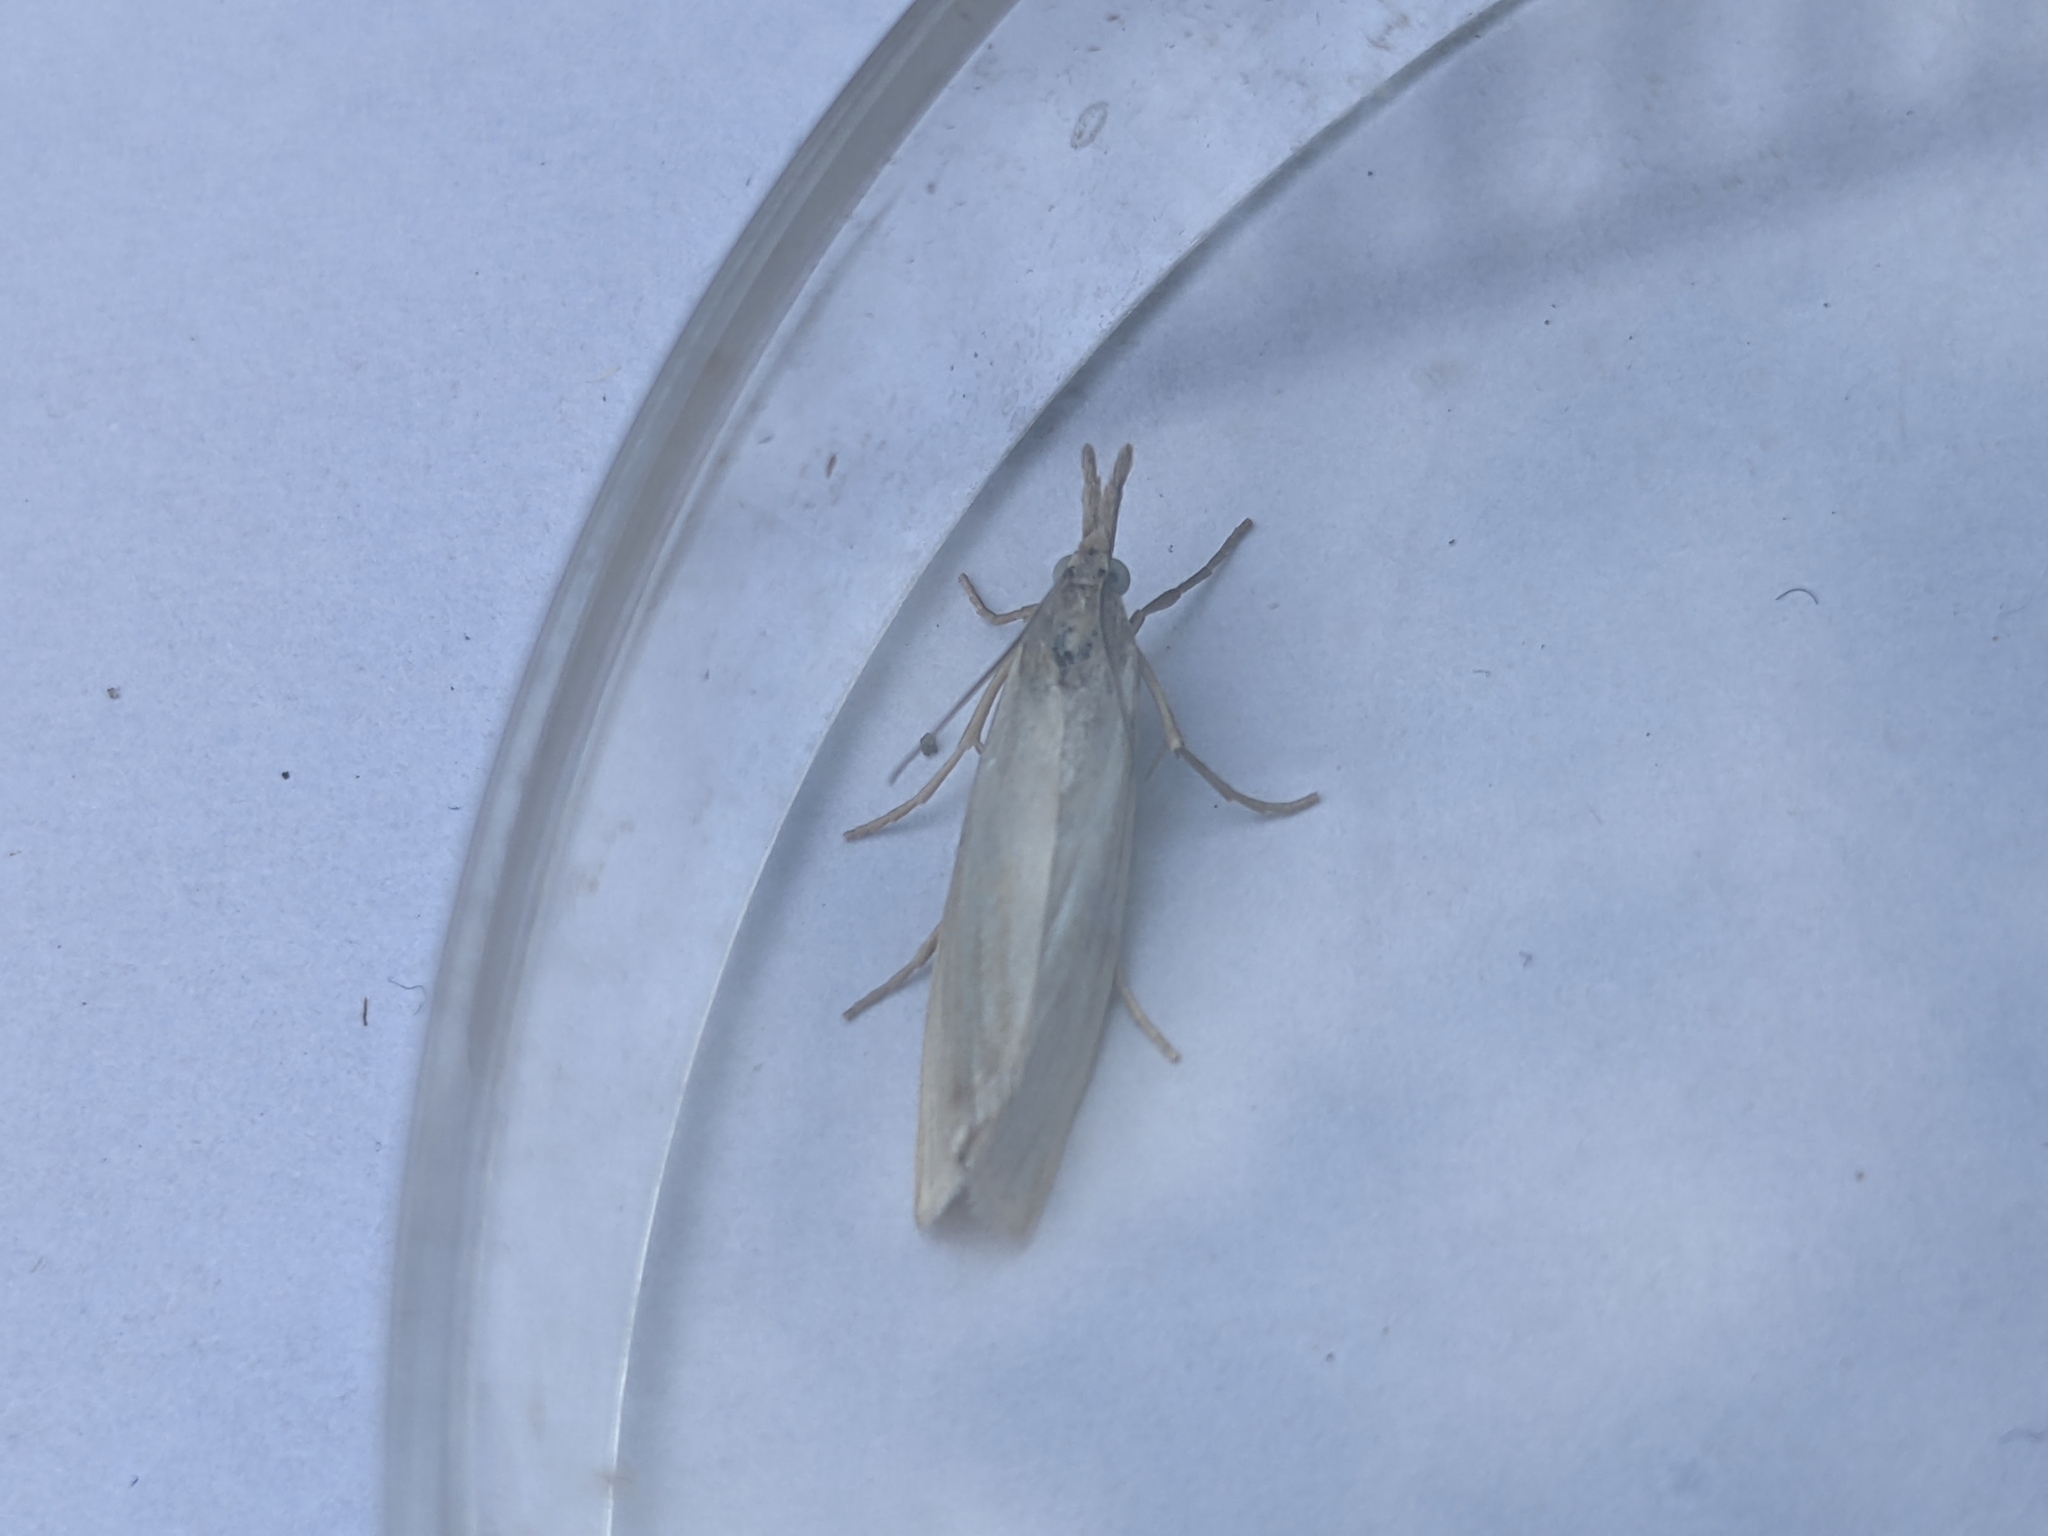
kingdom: Animalia
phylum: Arthropoda
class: Insecta
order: Lepidoptera
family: Crambidae
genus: Crambus
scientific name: Crambus perlellus
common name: Yellow satin veneer
